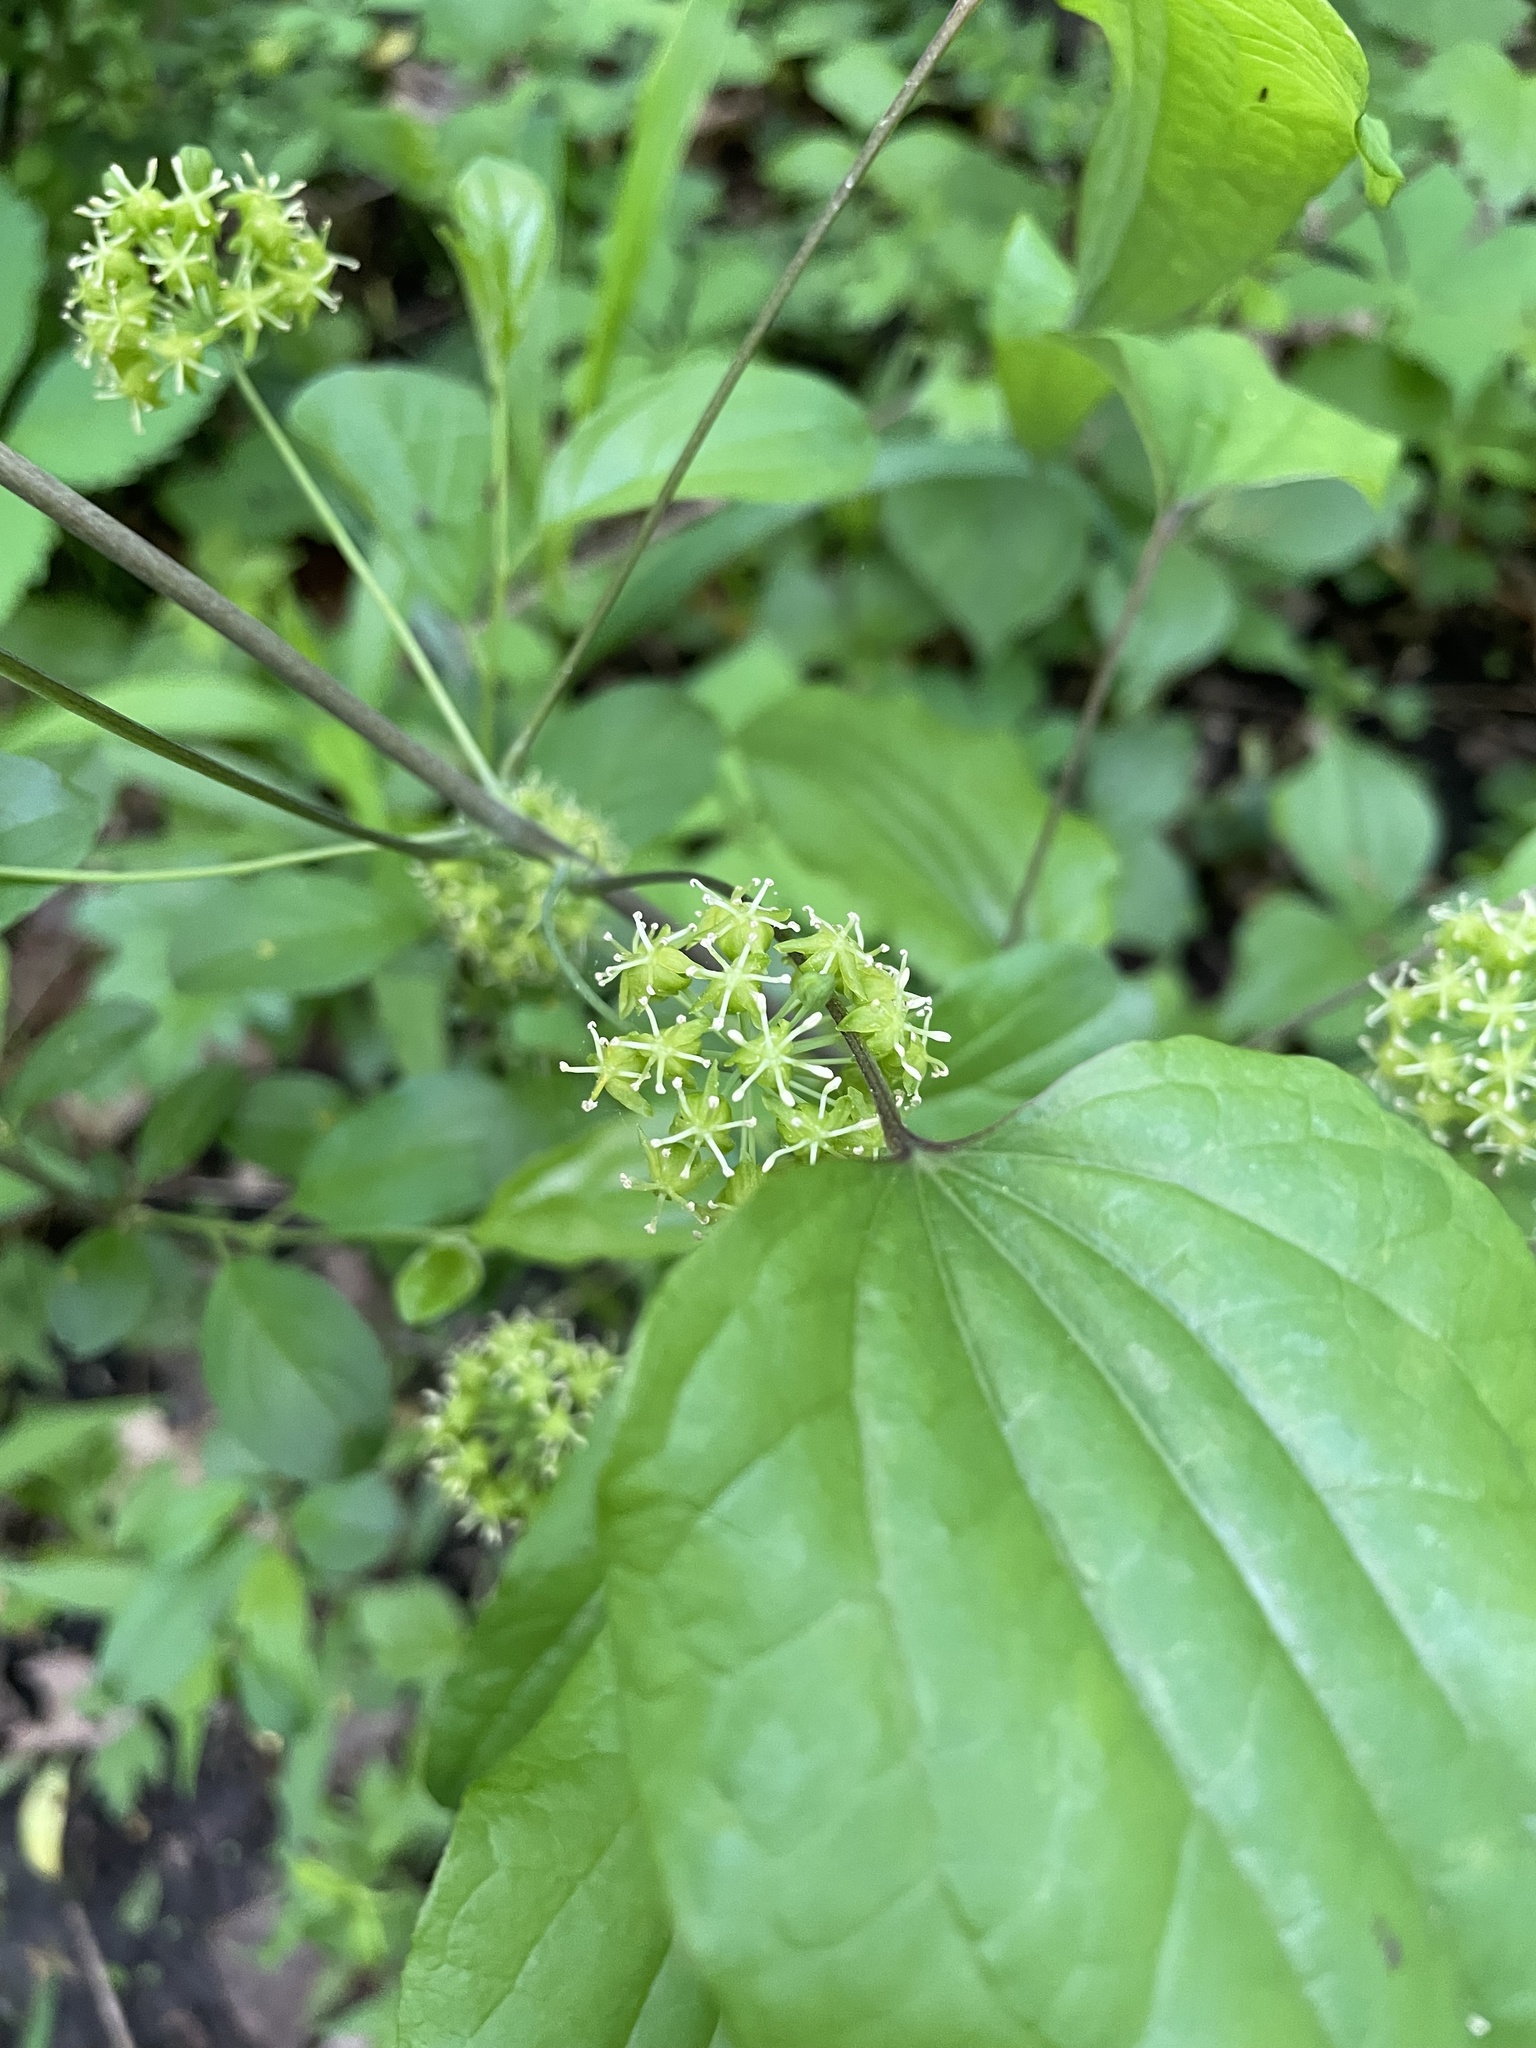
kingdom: Plantae
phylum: Tracheophyta
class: Liliopsida
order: Liliales
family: Smilacaceae
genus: Smilax
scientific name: Smilax lasioneura
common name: Blue ridge carrionflower
